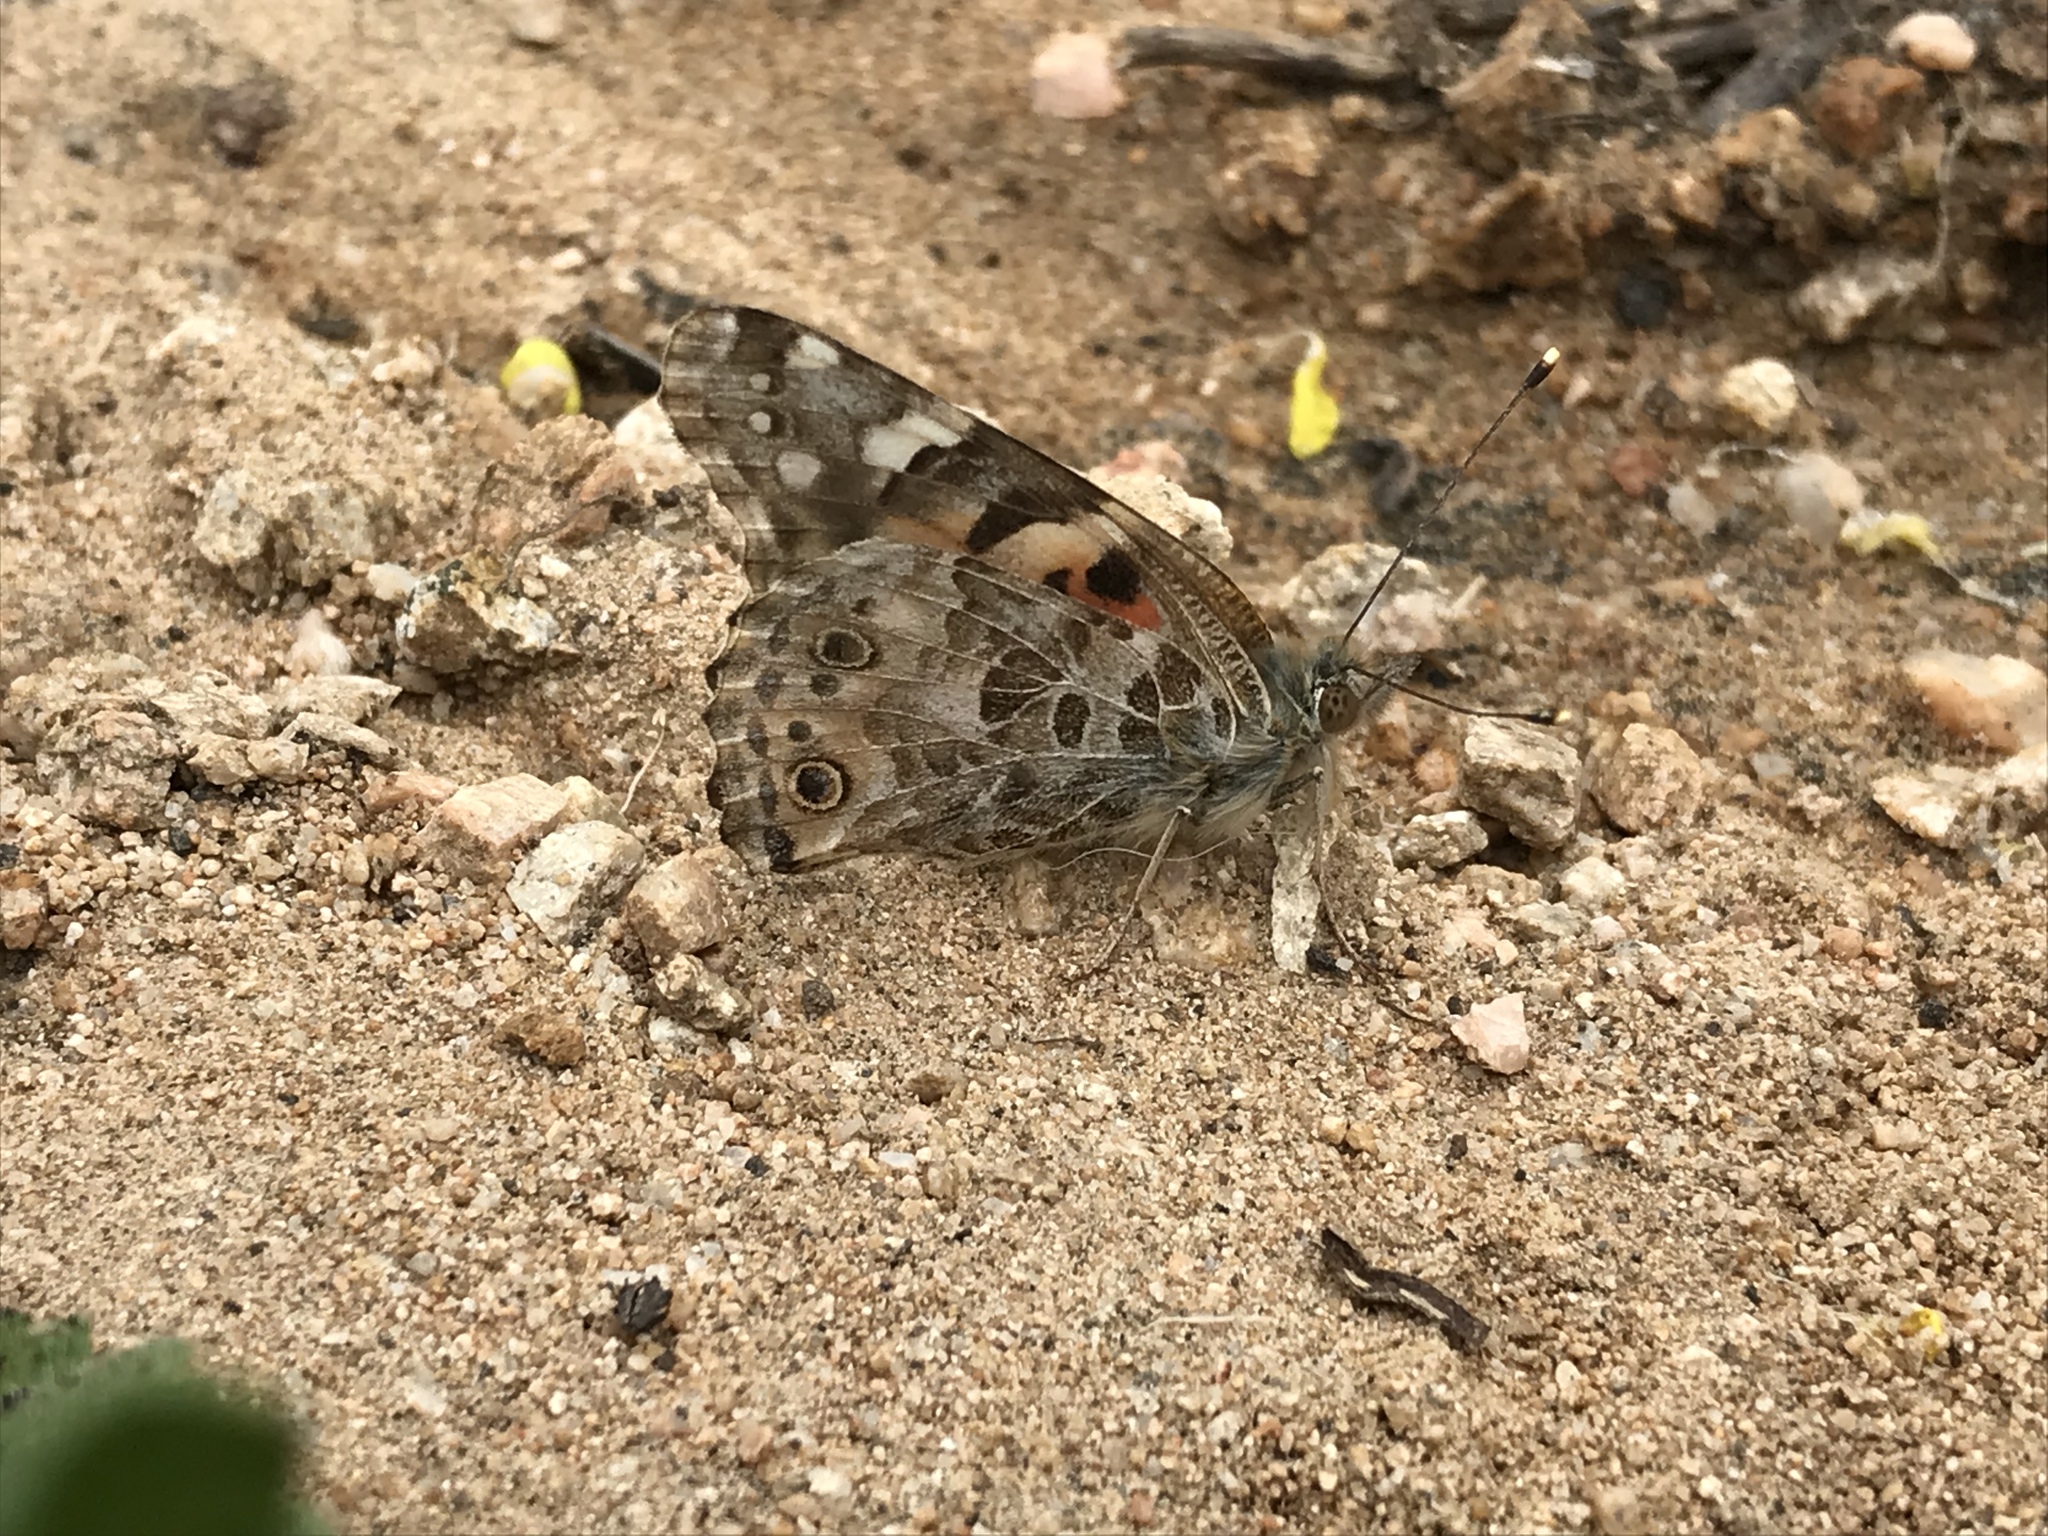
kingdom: Animalia
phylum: Arthropoda
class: Insecta
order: Lepidoptera
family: Nymphalidae
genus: Vanessa
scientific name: Vanessa cardui
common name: Painted lady
